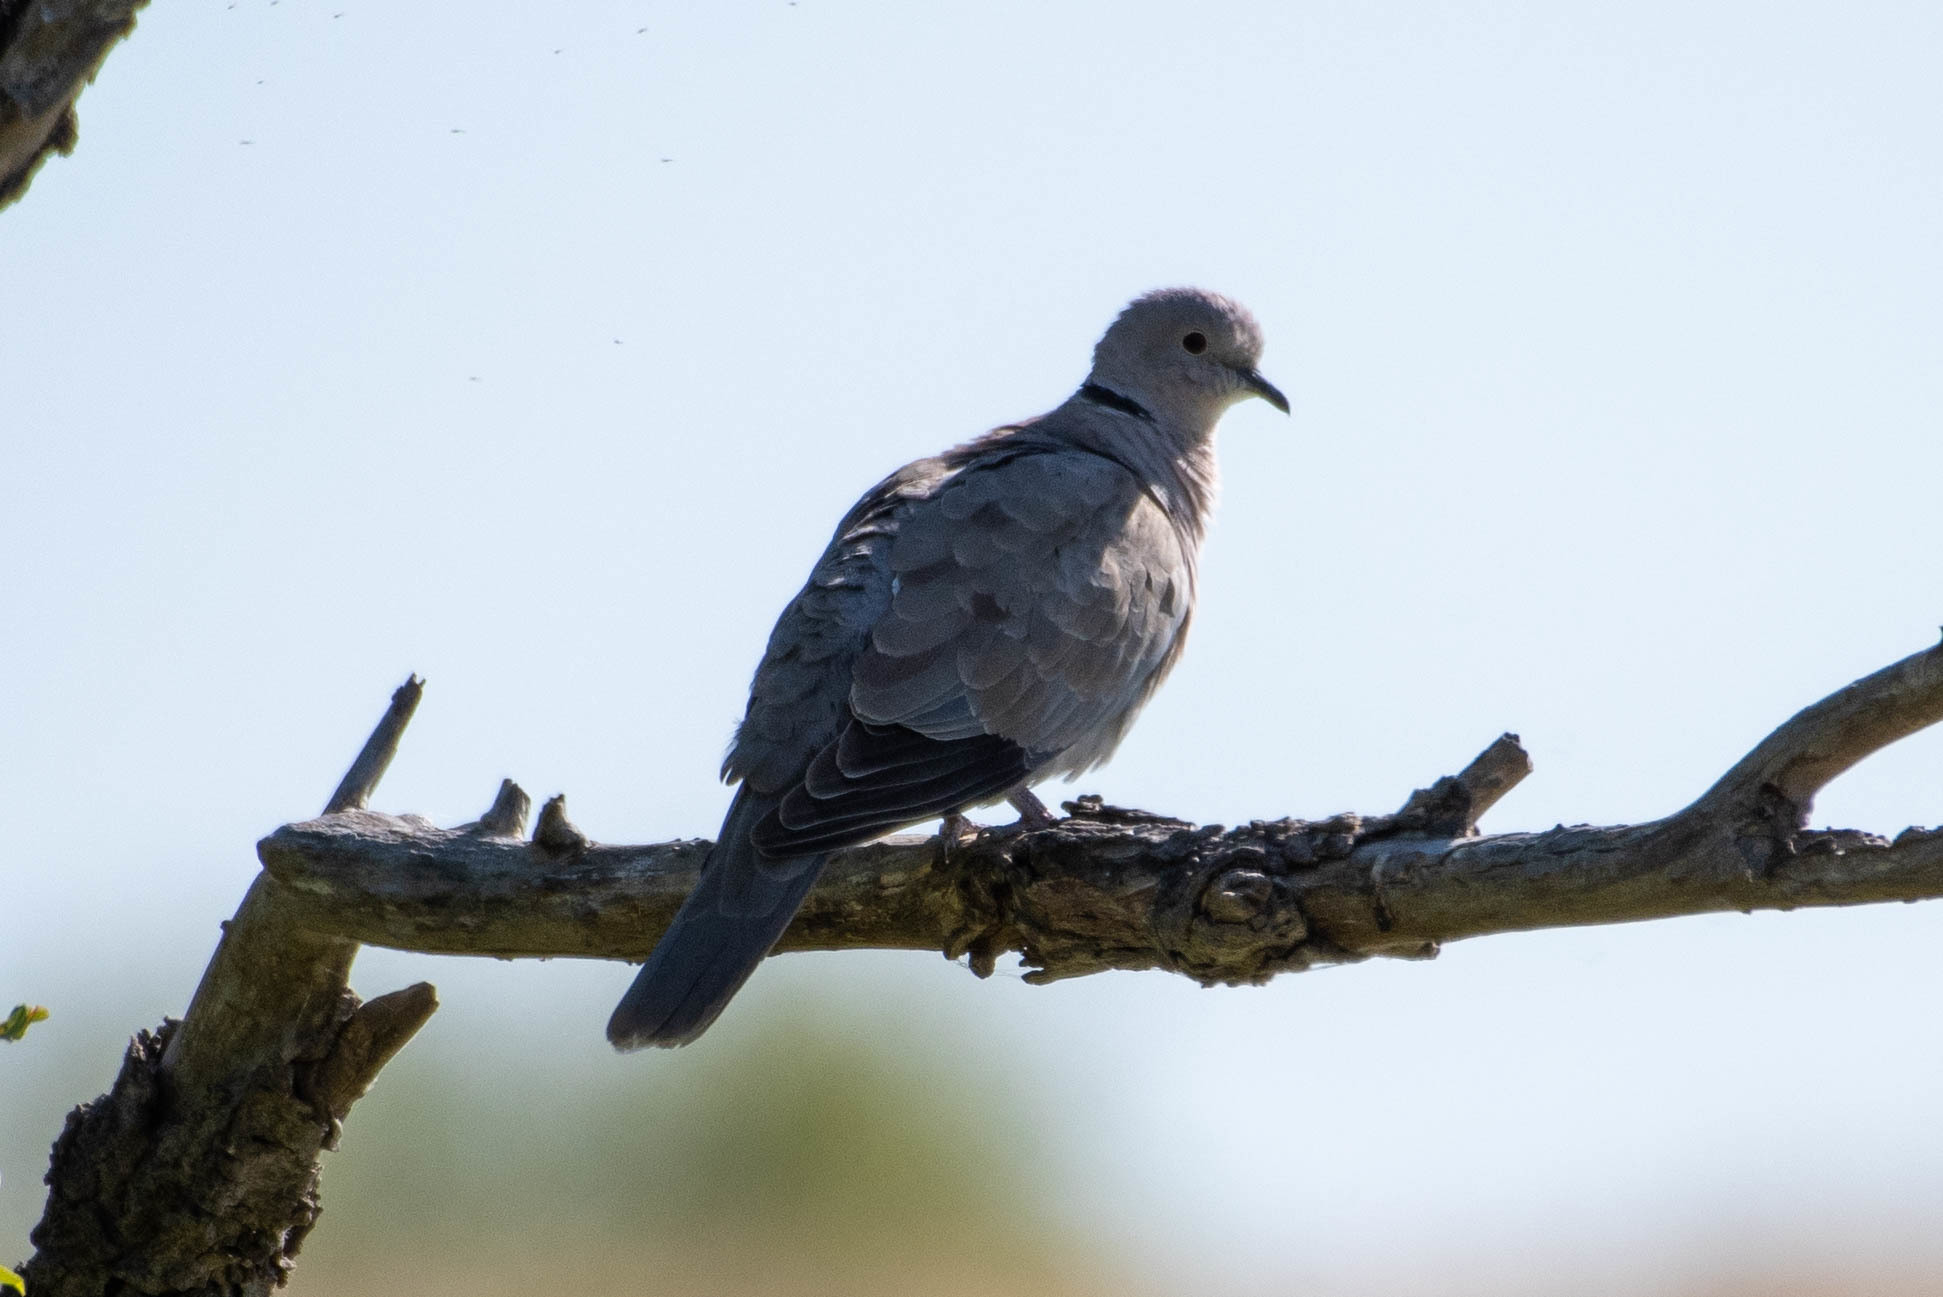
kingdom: Animalia
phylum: Chordata
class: Aves
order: Columbiformes
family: Columbidae
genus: Streptopelia
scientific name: Streptopelia decaocto
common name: Eurasian collared dove
